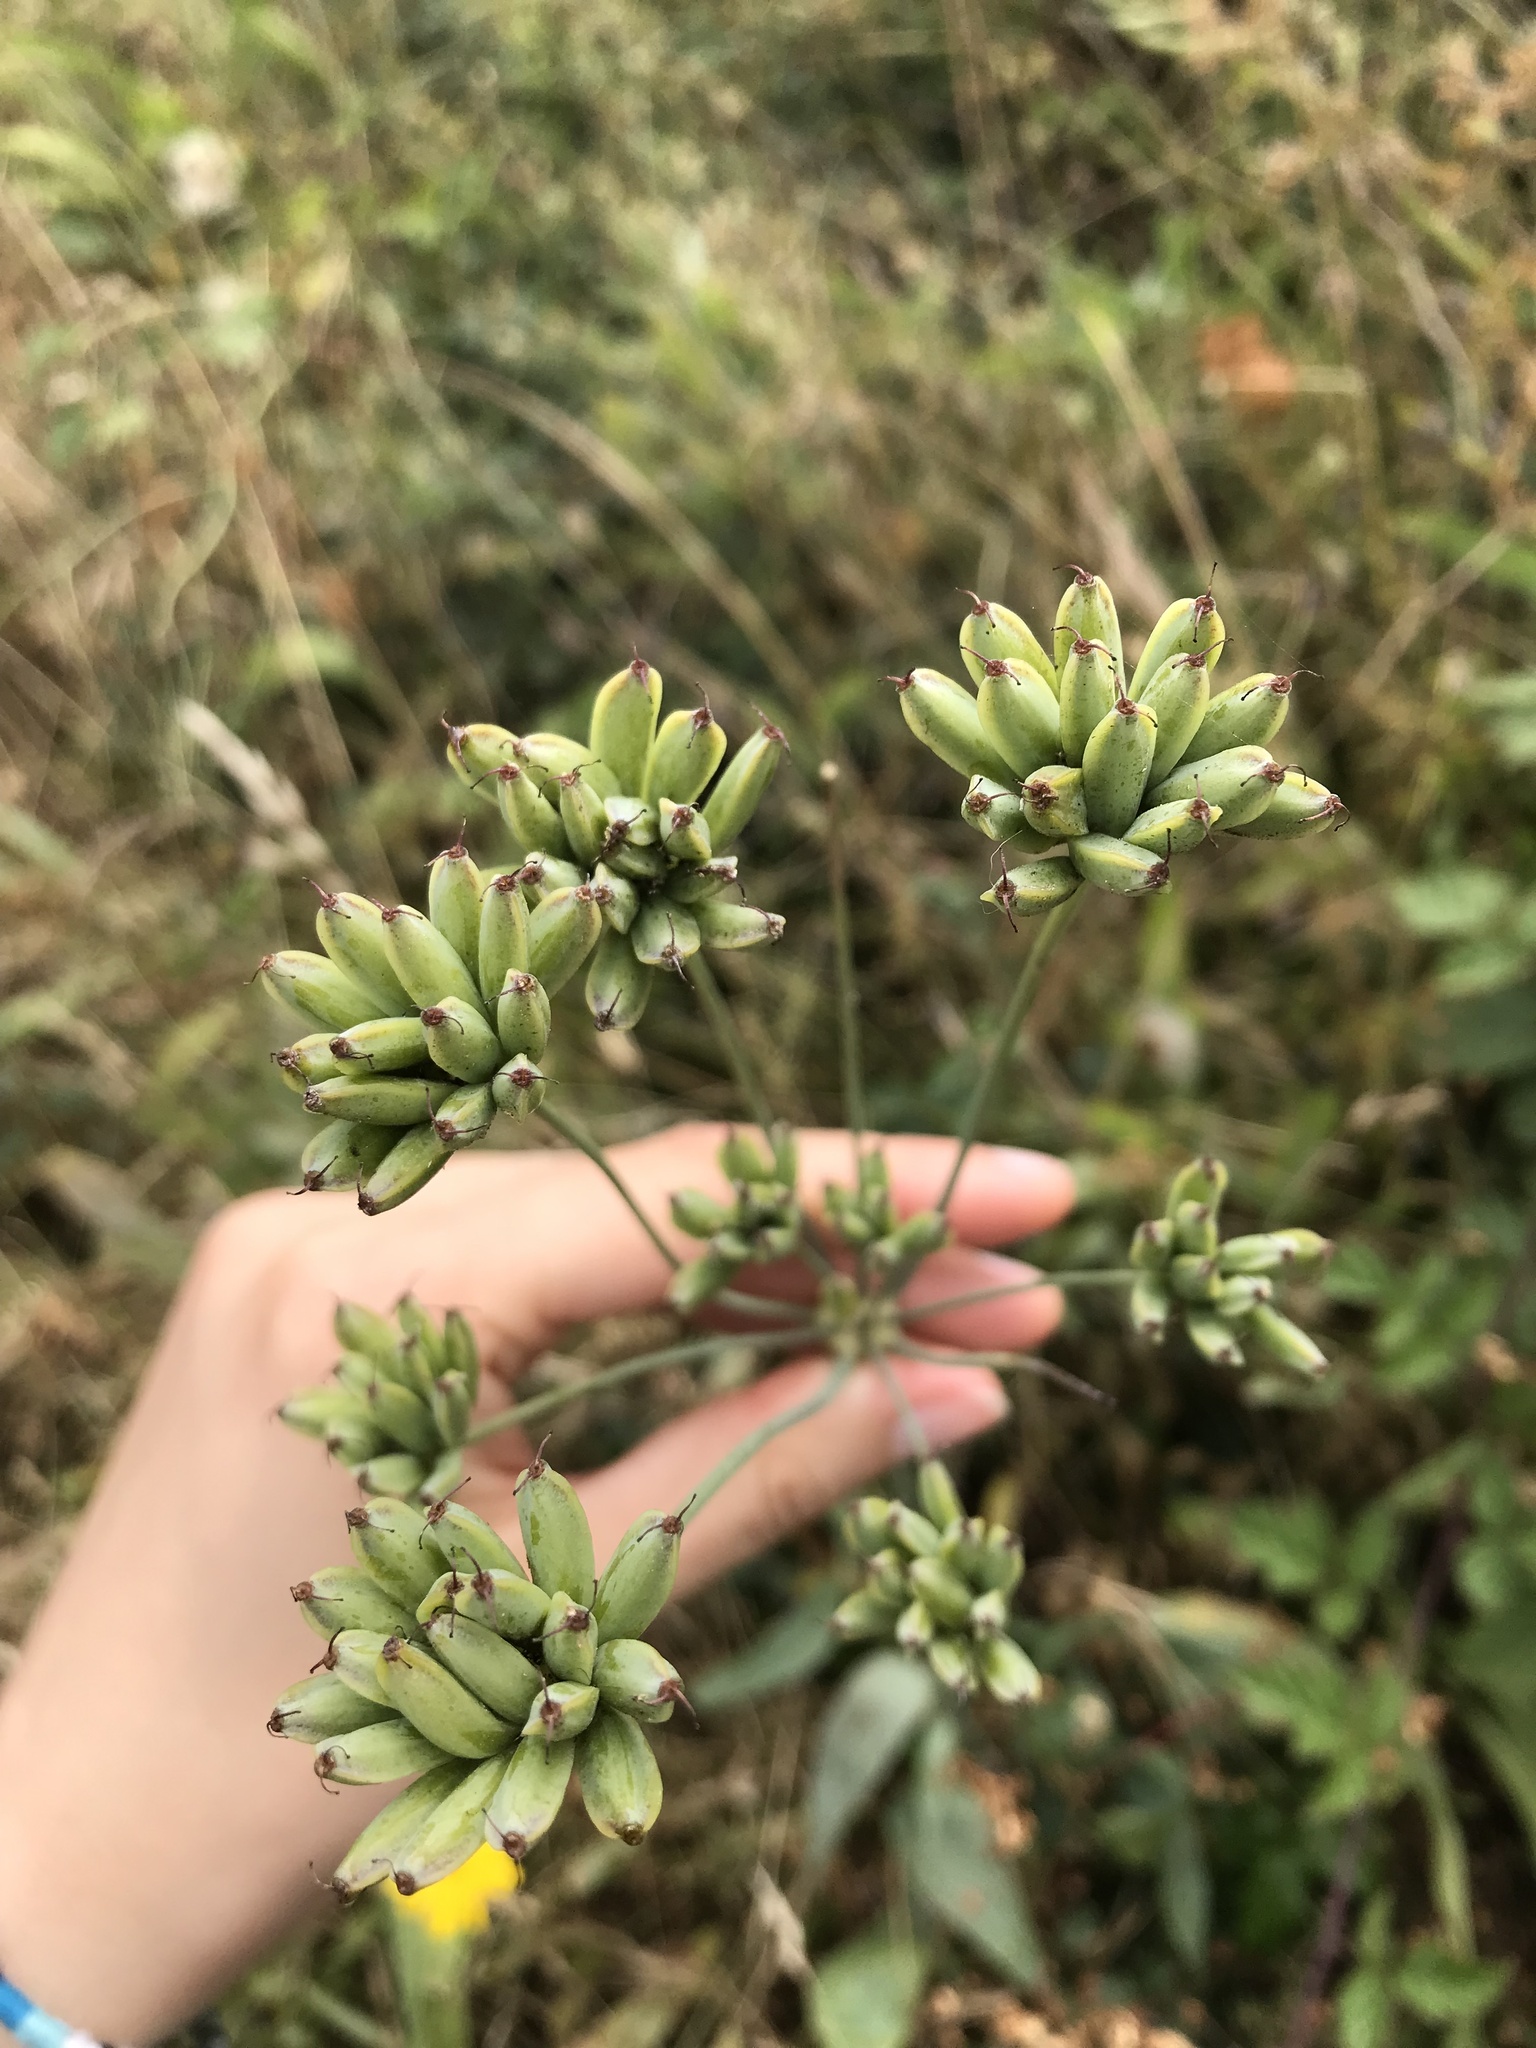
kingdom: Plantae
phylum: Tracheophyta
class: Magnoliopsida
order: Apiales
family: Apiaceae
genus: Lomatium
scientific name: Lomatium nudicaule
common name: Pestle lomatium
